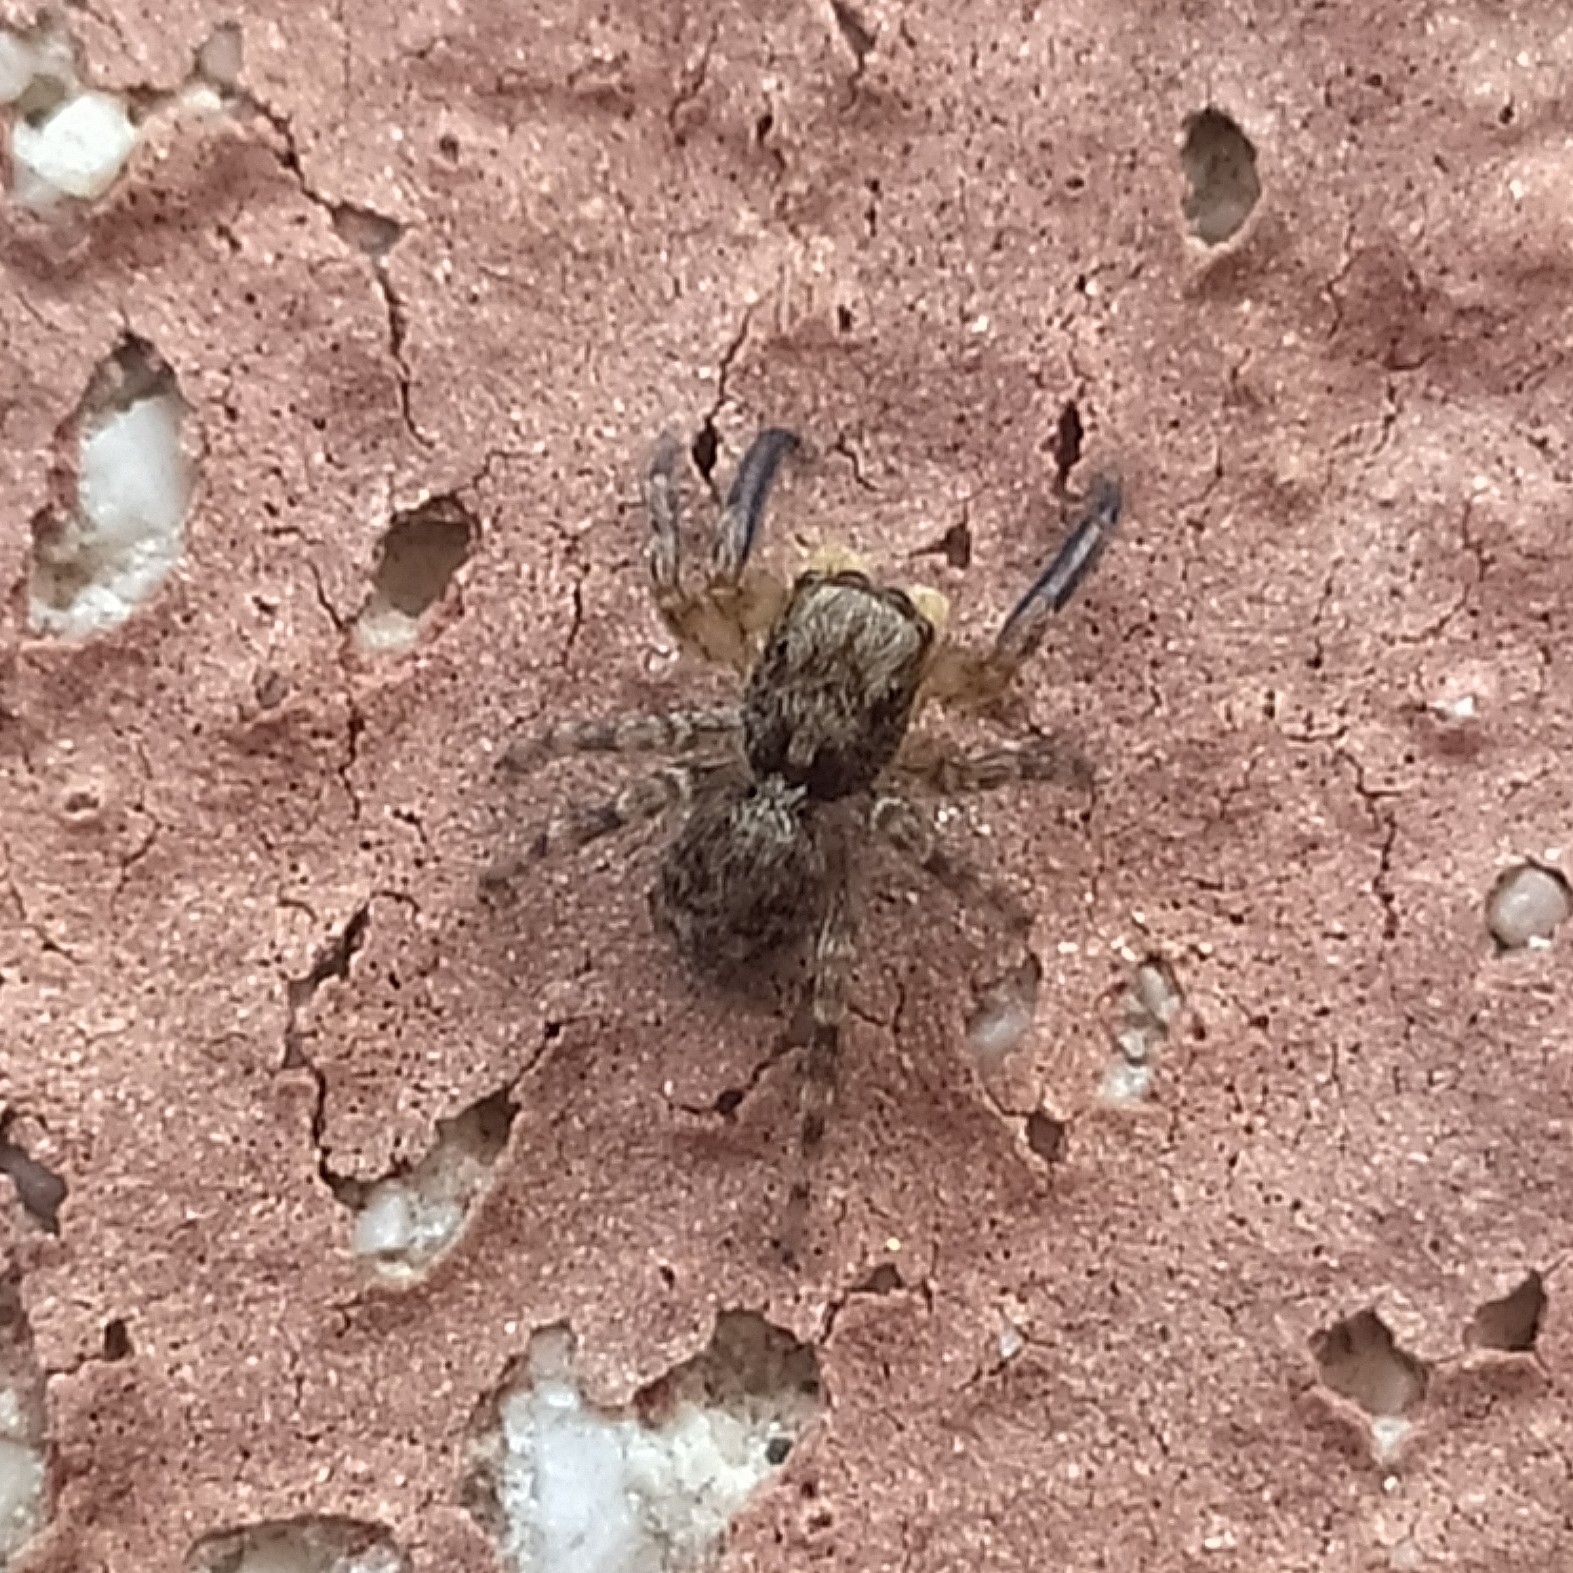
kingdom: Animalia
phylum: Arthropoda
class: Arachnida
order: Araneae
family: Salticidae
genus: Pseudeuophrys
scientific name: Pseudeuophrys vafra
